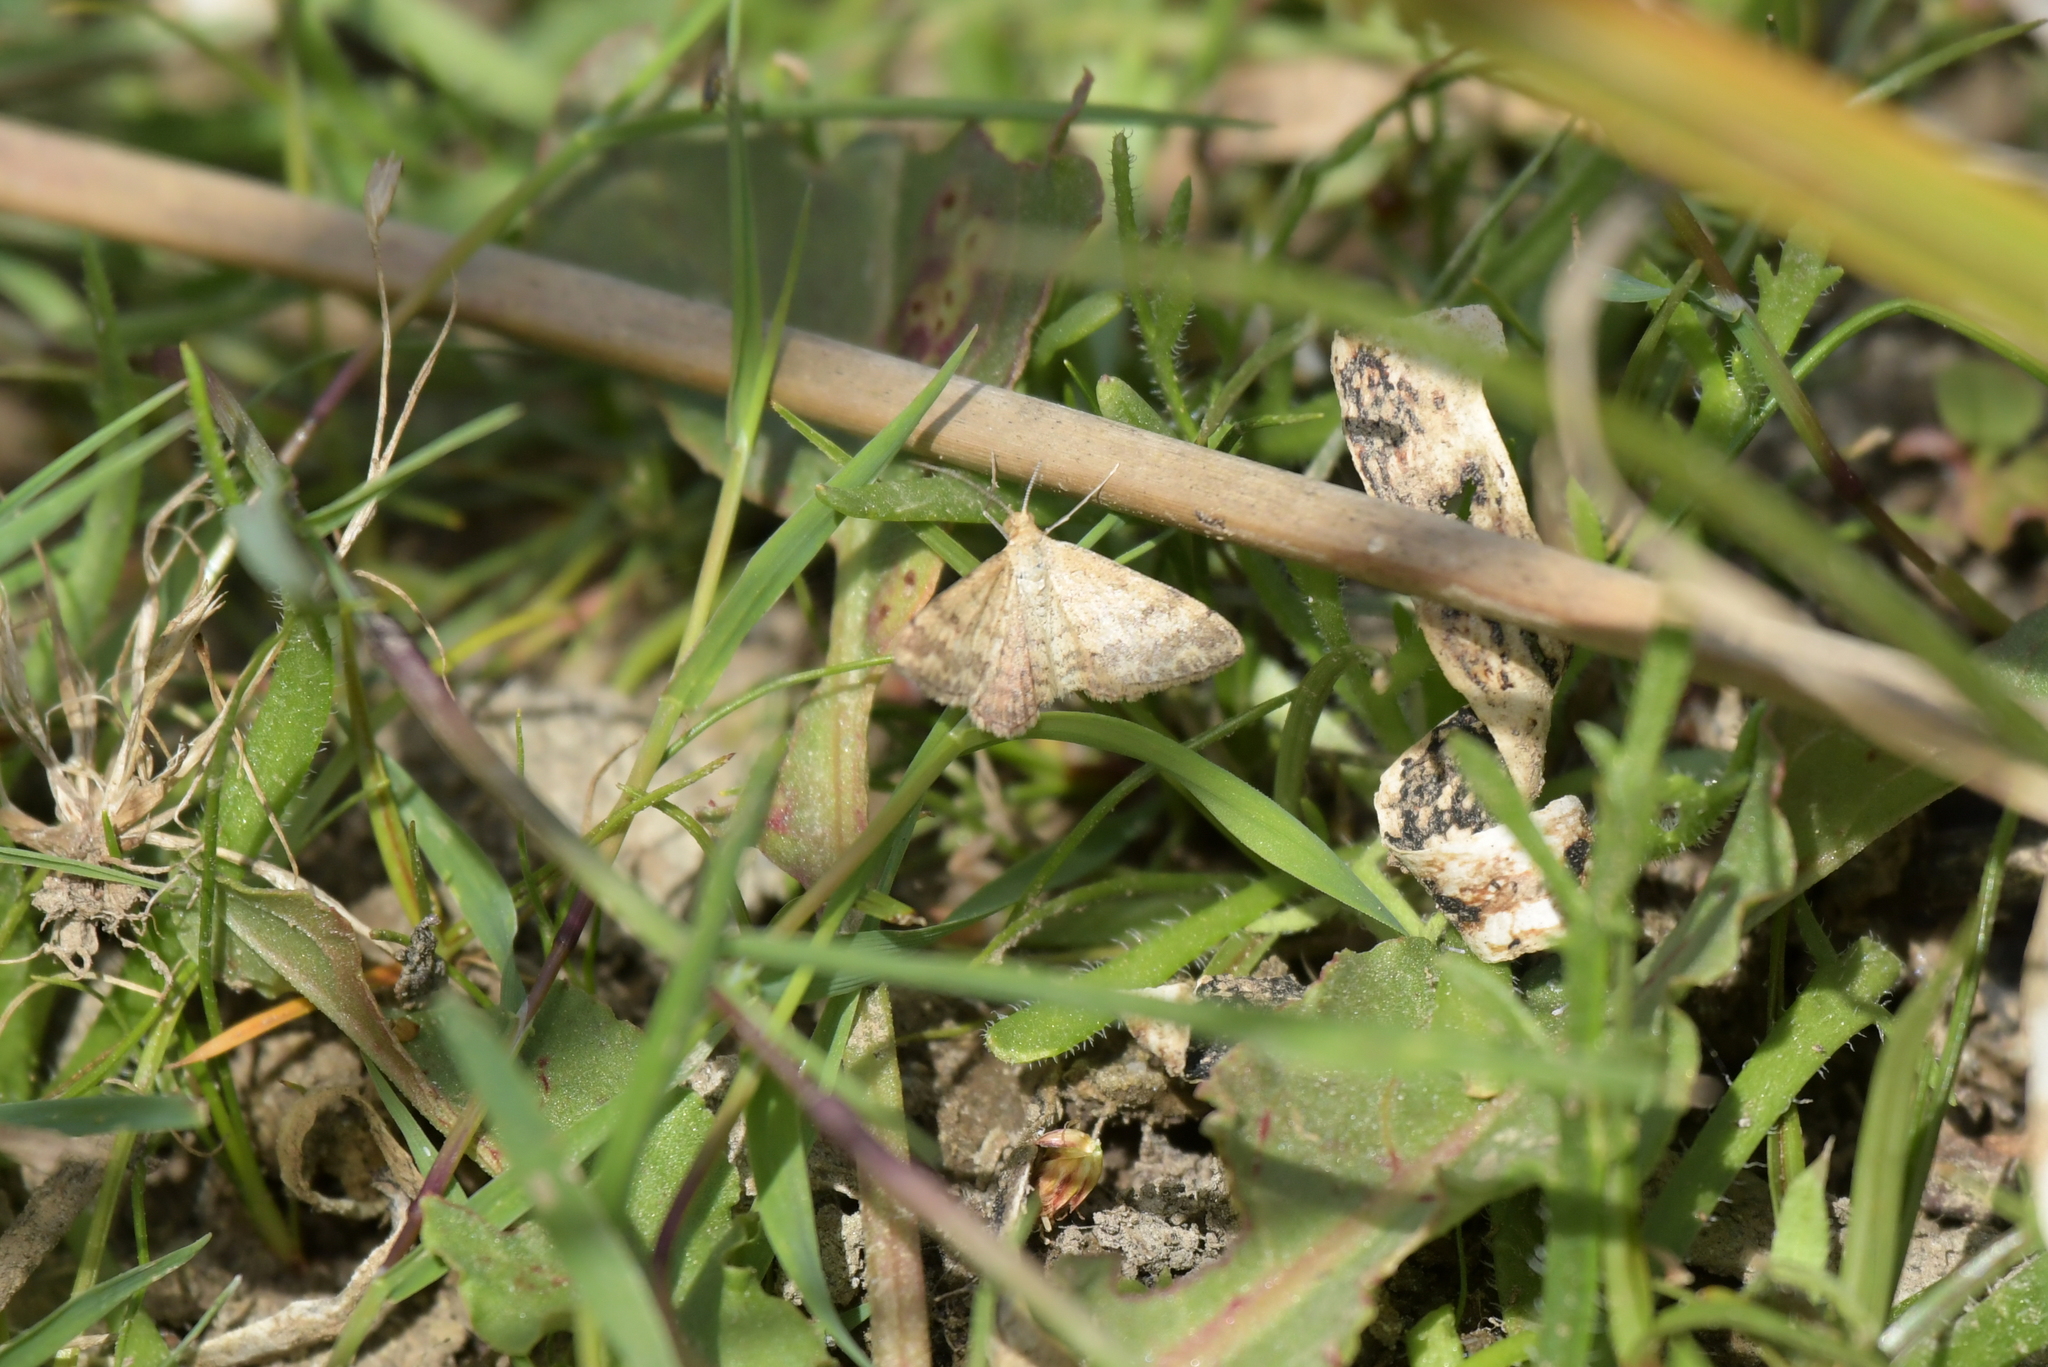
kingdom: Animalia
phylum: Arthropoda
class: Insecta
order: Lepidoptera
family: Geometridae
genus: Scopula
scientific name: Scopula rubraria
